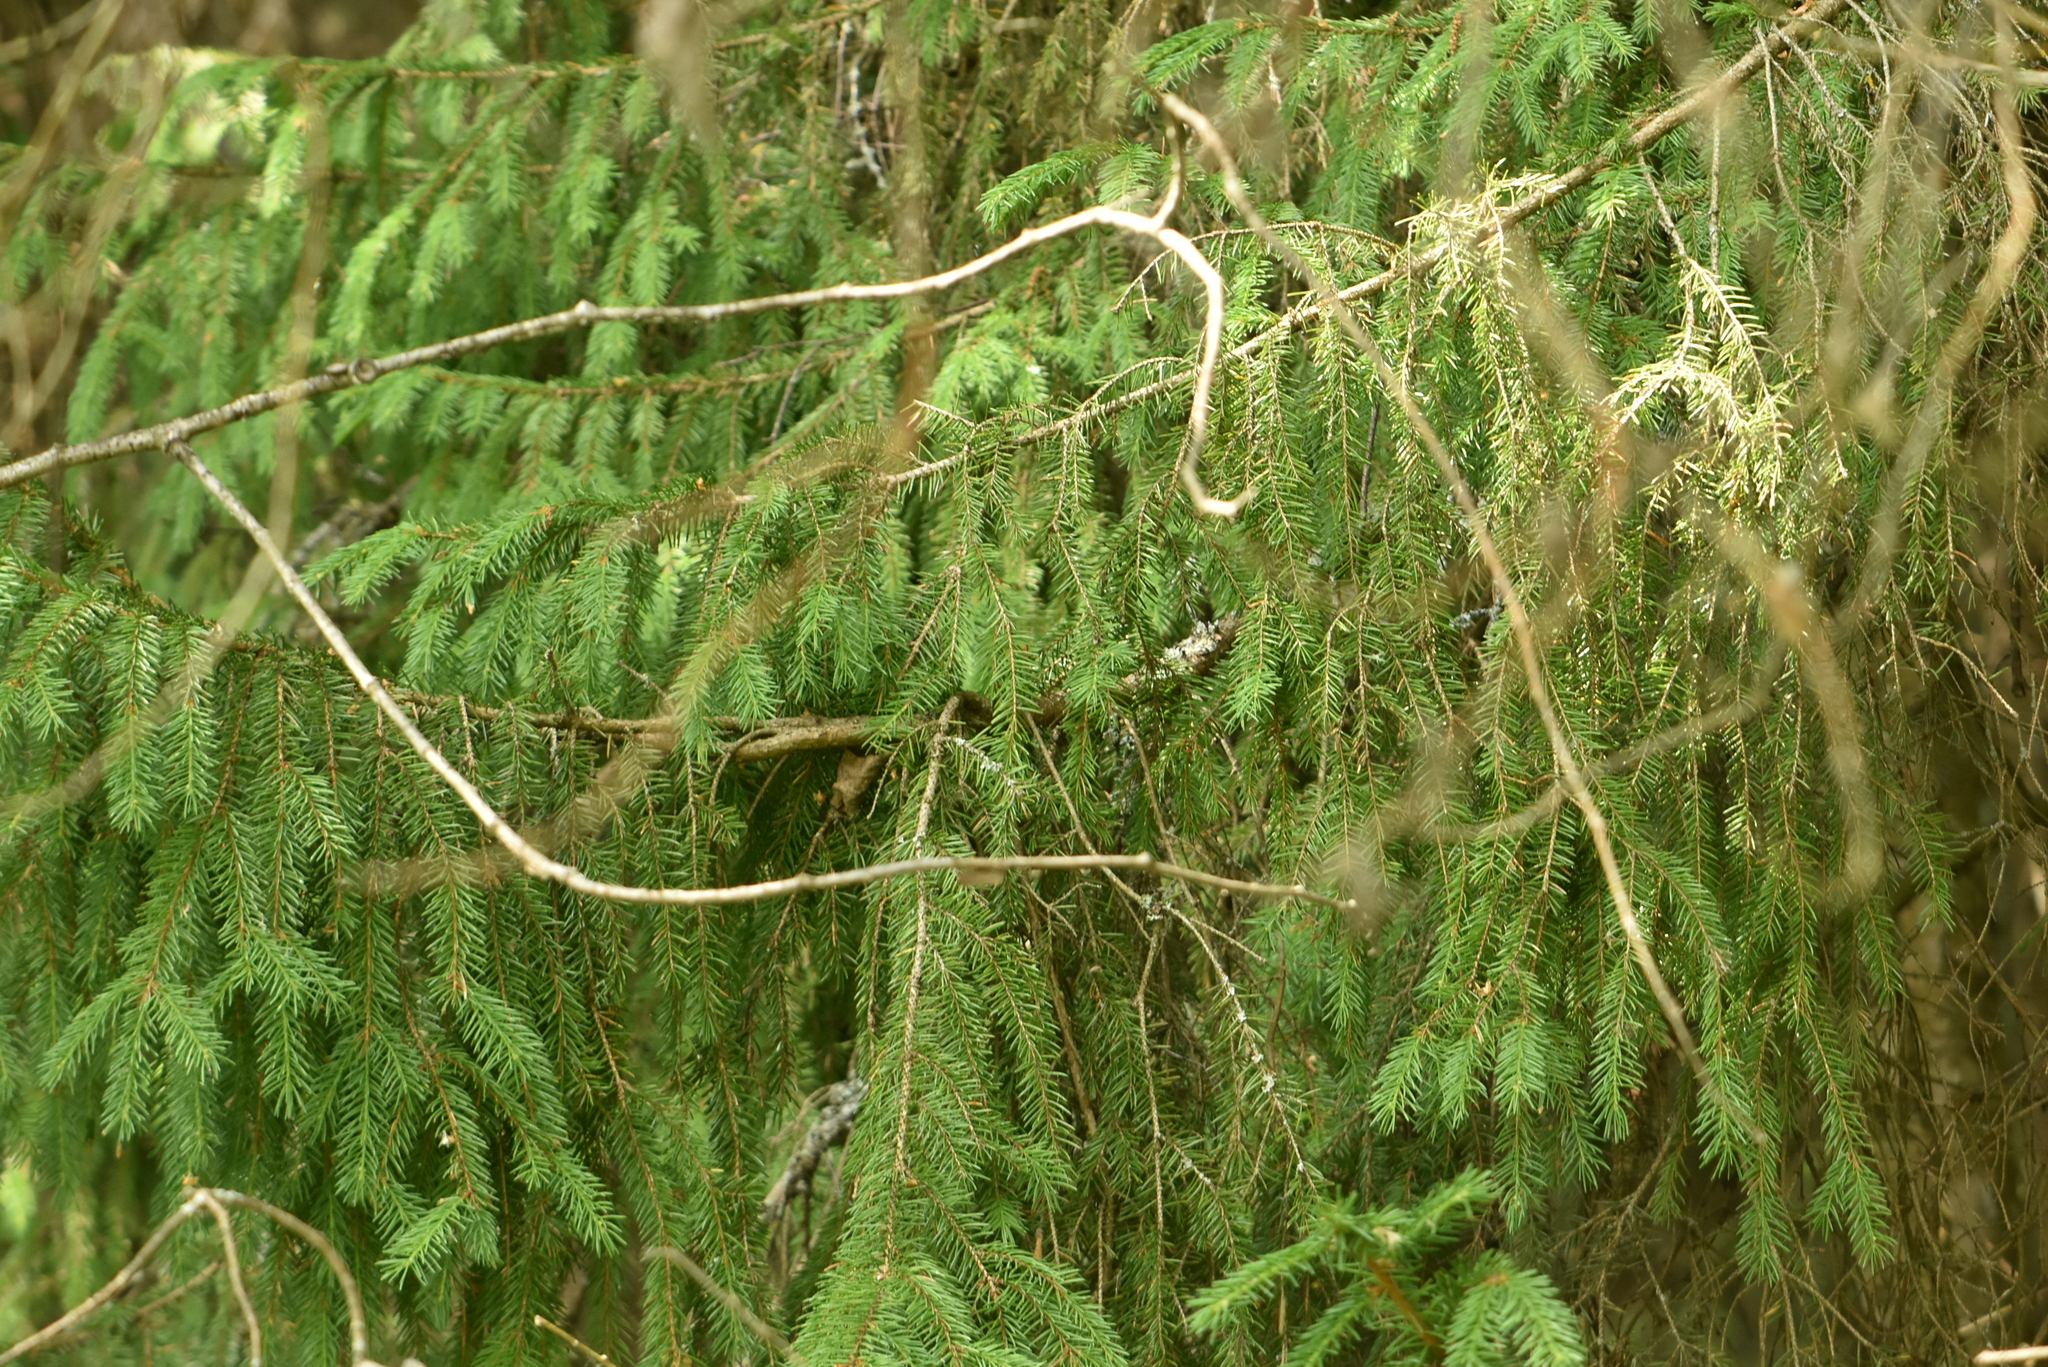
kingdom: Plantae
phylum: Tracheophyta
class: Pinopsida
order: Pinales
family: Pinaceae
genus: Picea
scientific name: Picea abies
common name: Norway spruce
